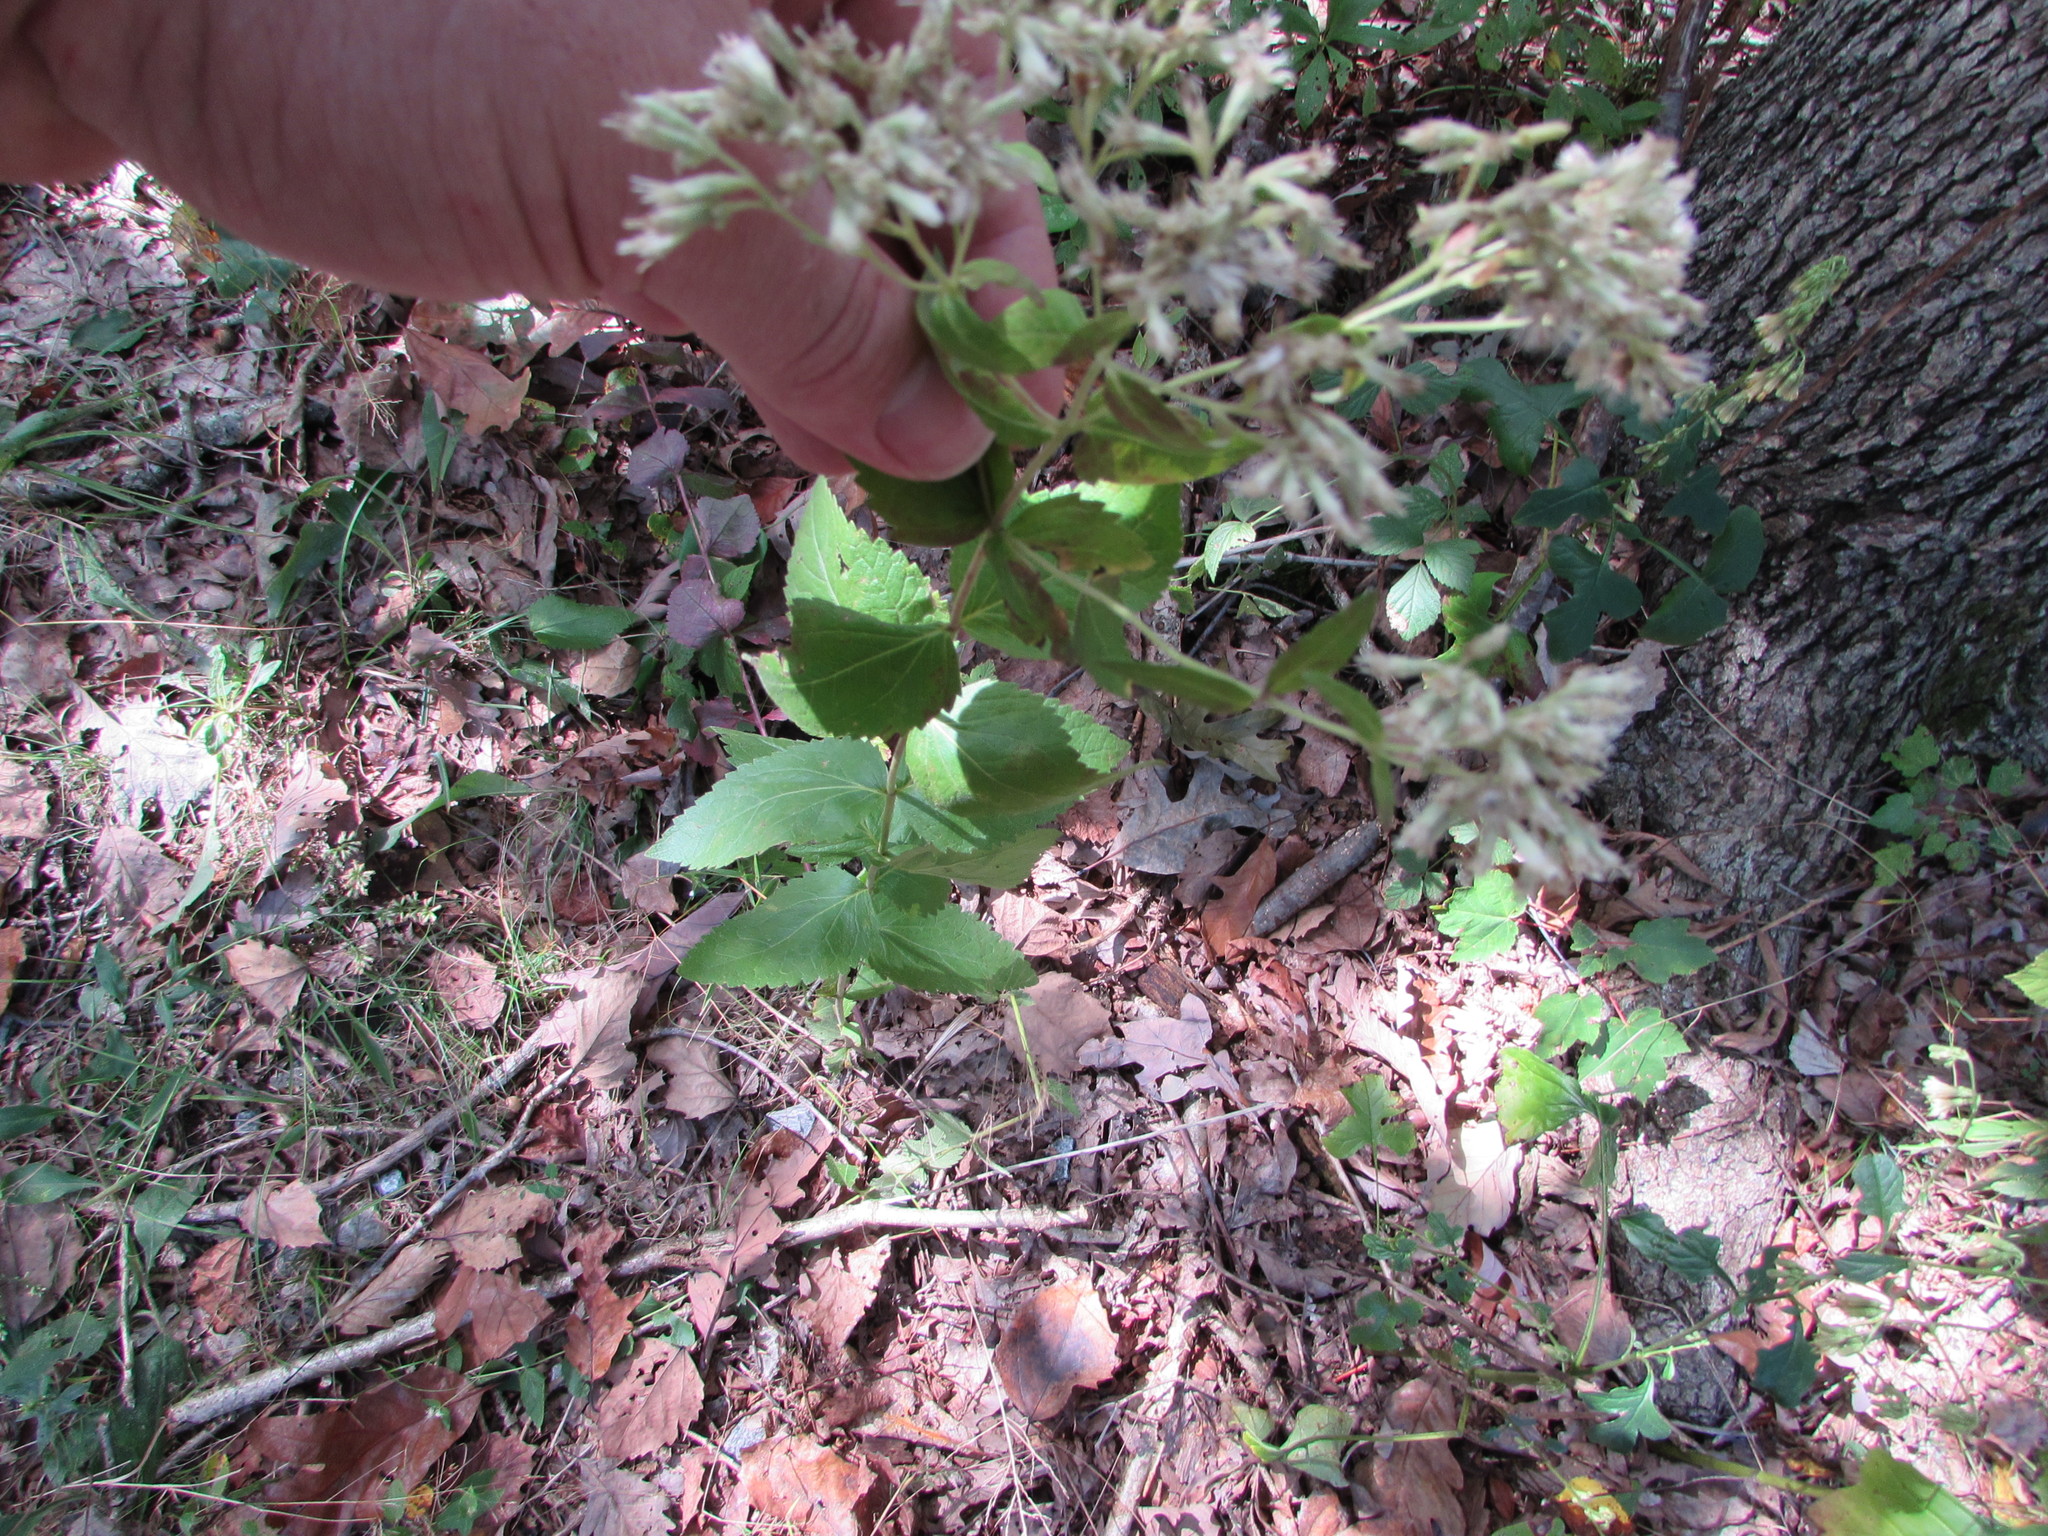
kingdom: Plantae
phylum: Tracheophyta
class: Magnoliopsida
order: Asterales
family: Asteraceae
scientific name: Asteraceae
